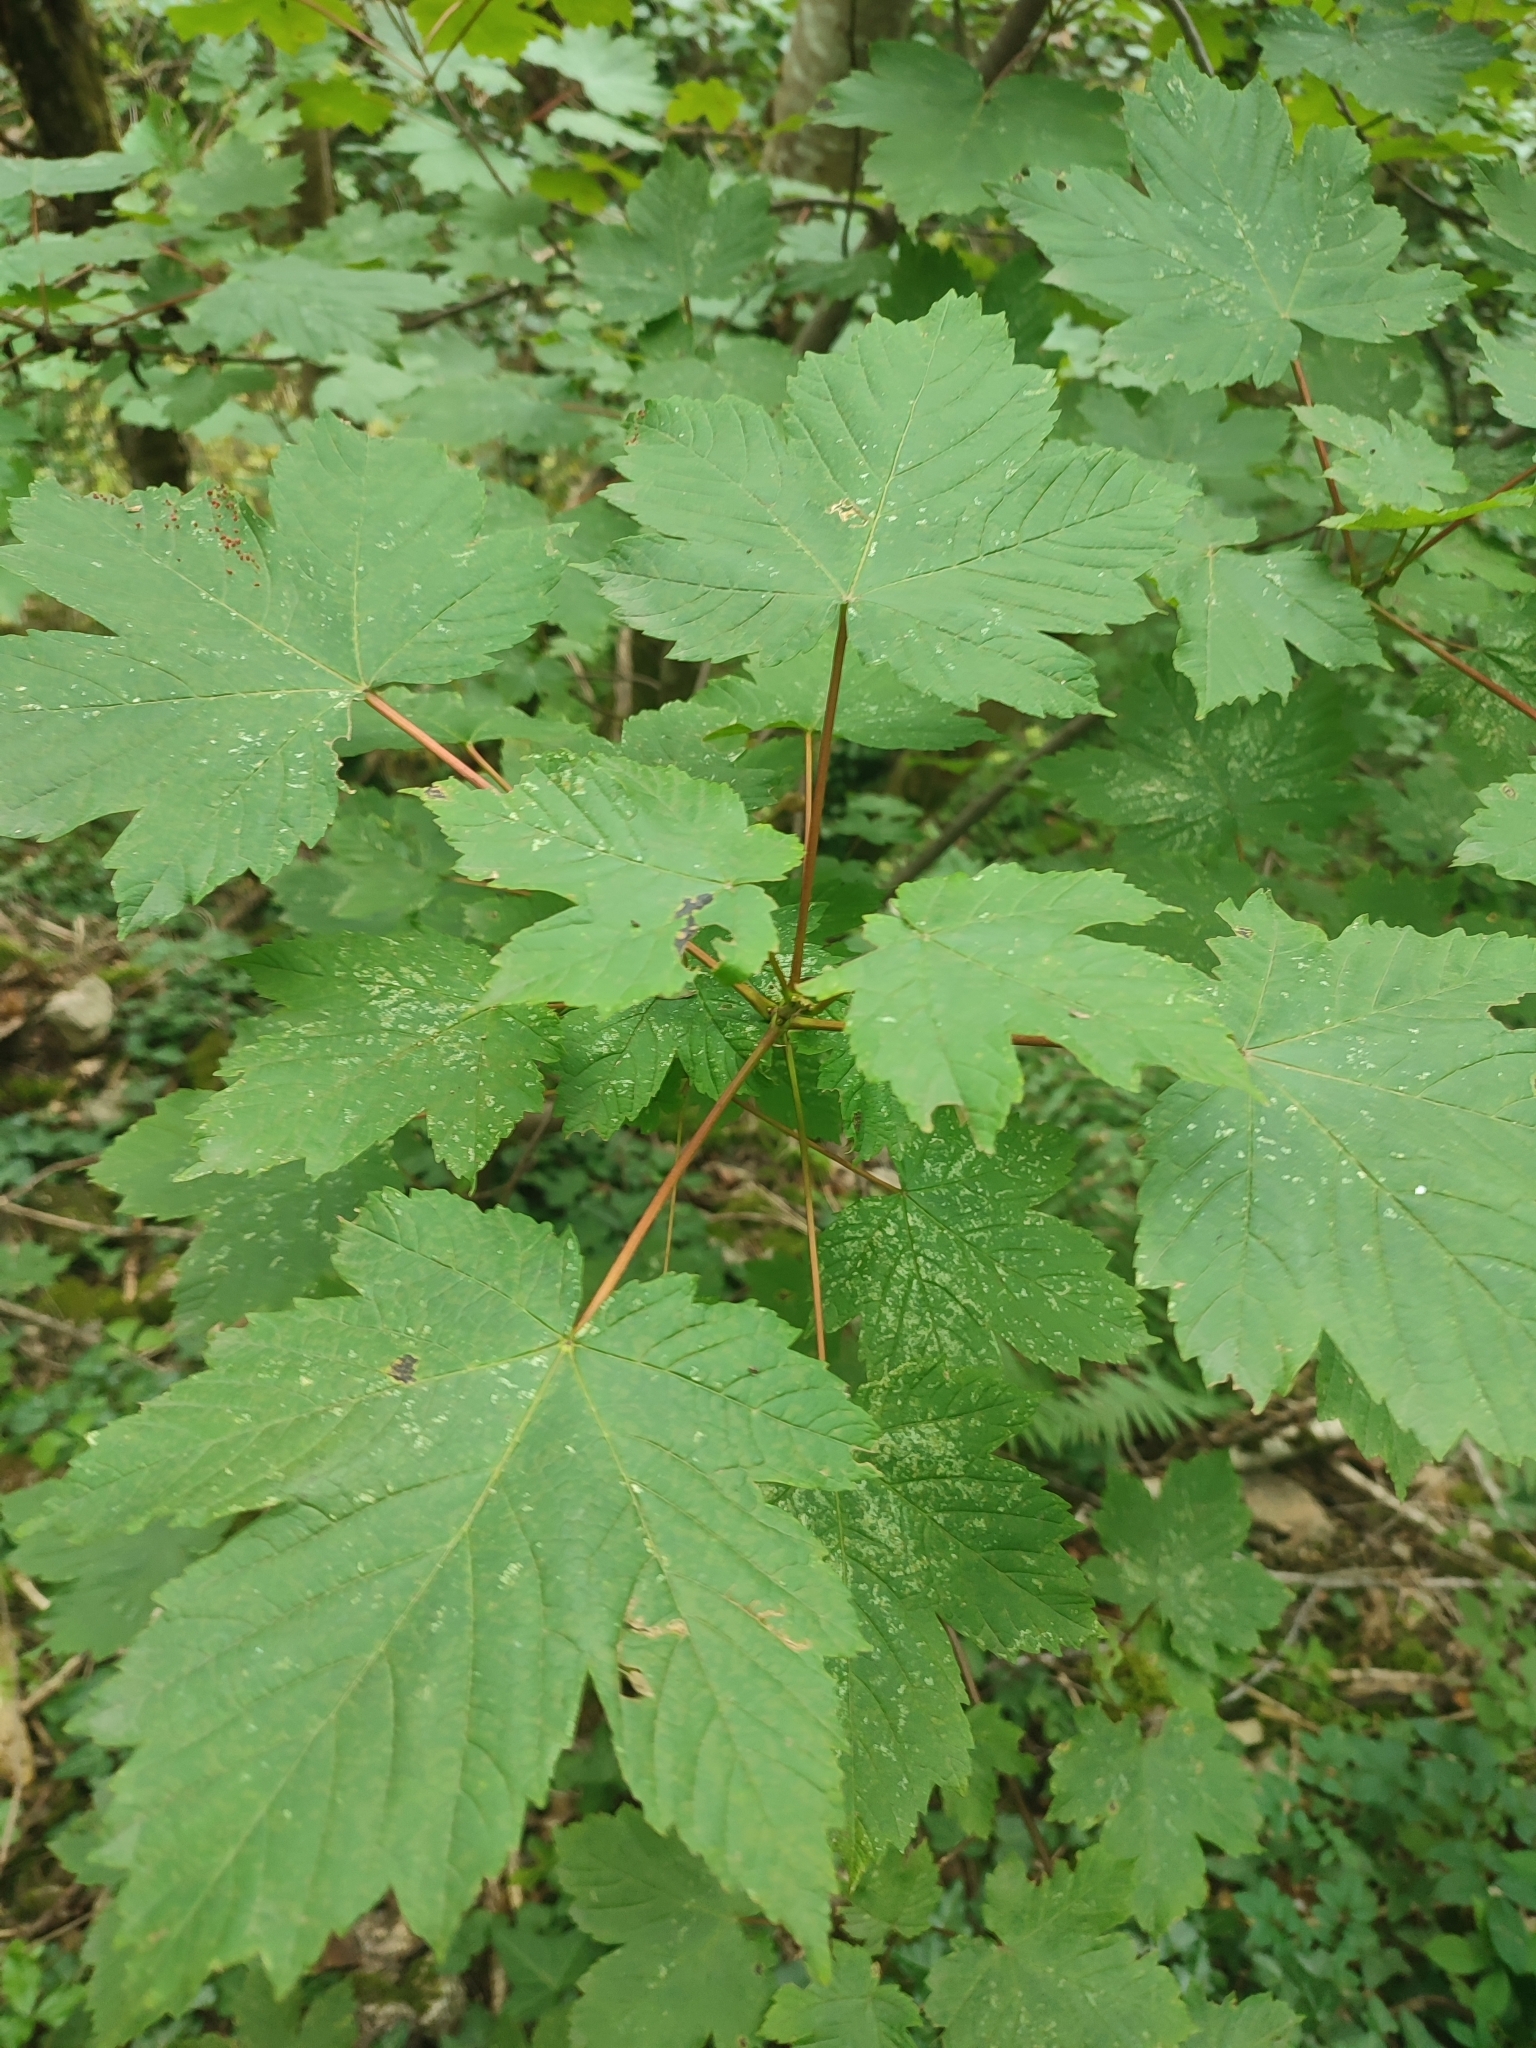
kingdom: Plantae
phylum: Tracheophyta
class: Magnoliopsida
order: Sapindales
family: Sapindaceae
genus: Acer
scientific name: Acer pseudoplatanus
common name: Sycamore
